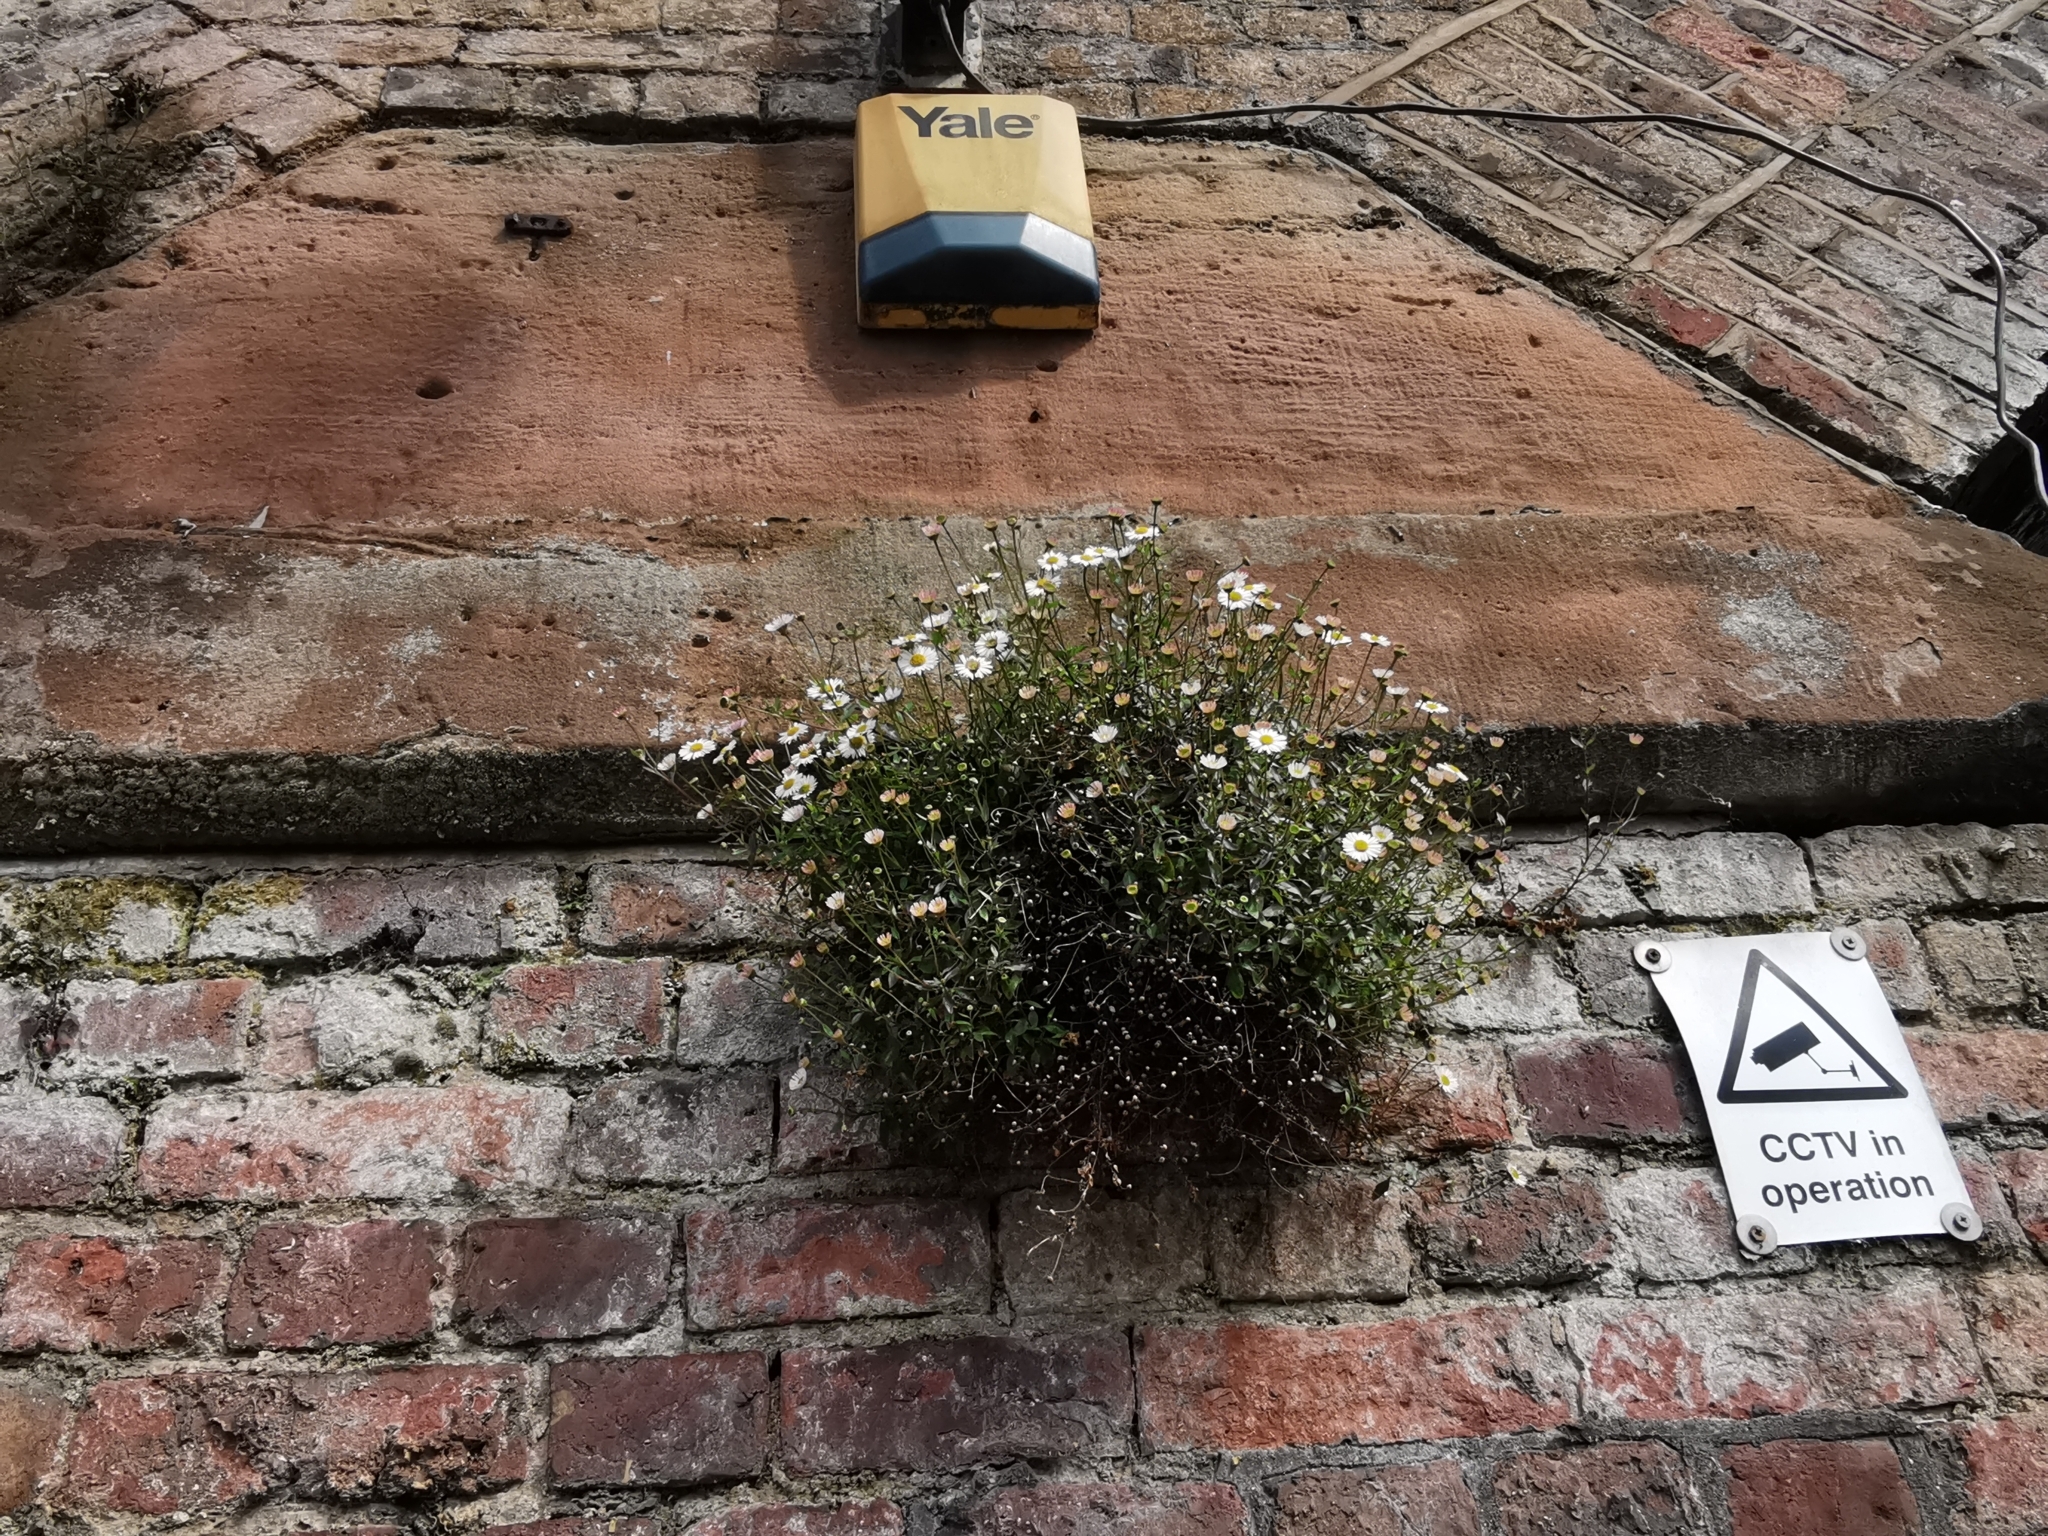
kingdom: Plantae
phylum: Tracheophyta
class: Magnoliopsida
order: Asterales
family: Asteraceae
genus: Erigeron
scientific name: Erigeron karvinskianus
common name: Mexican fleabane
